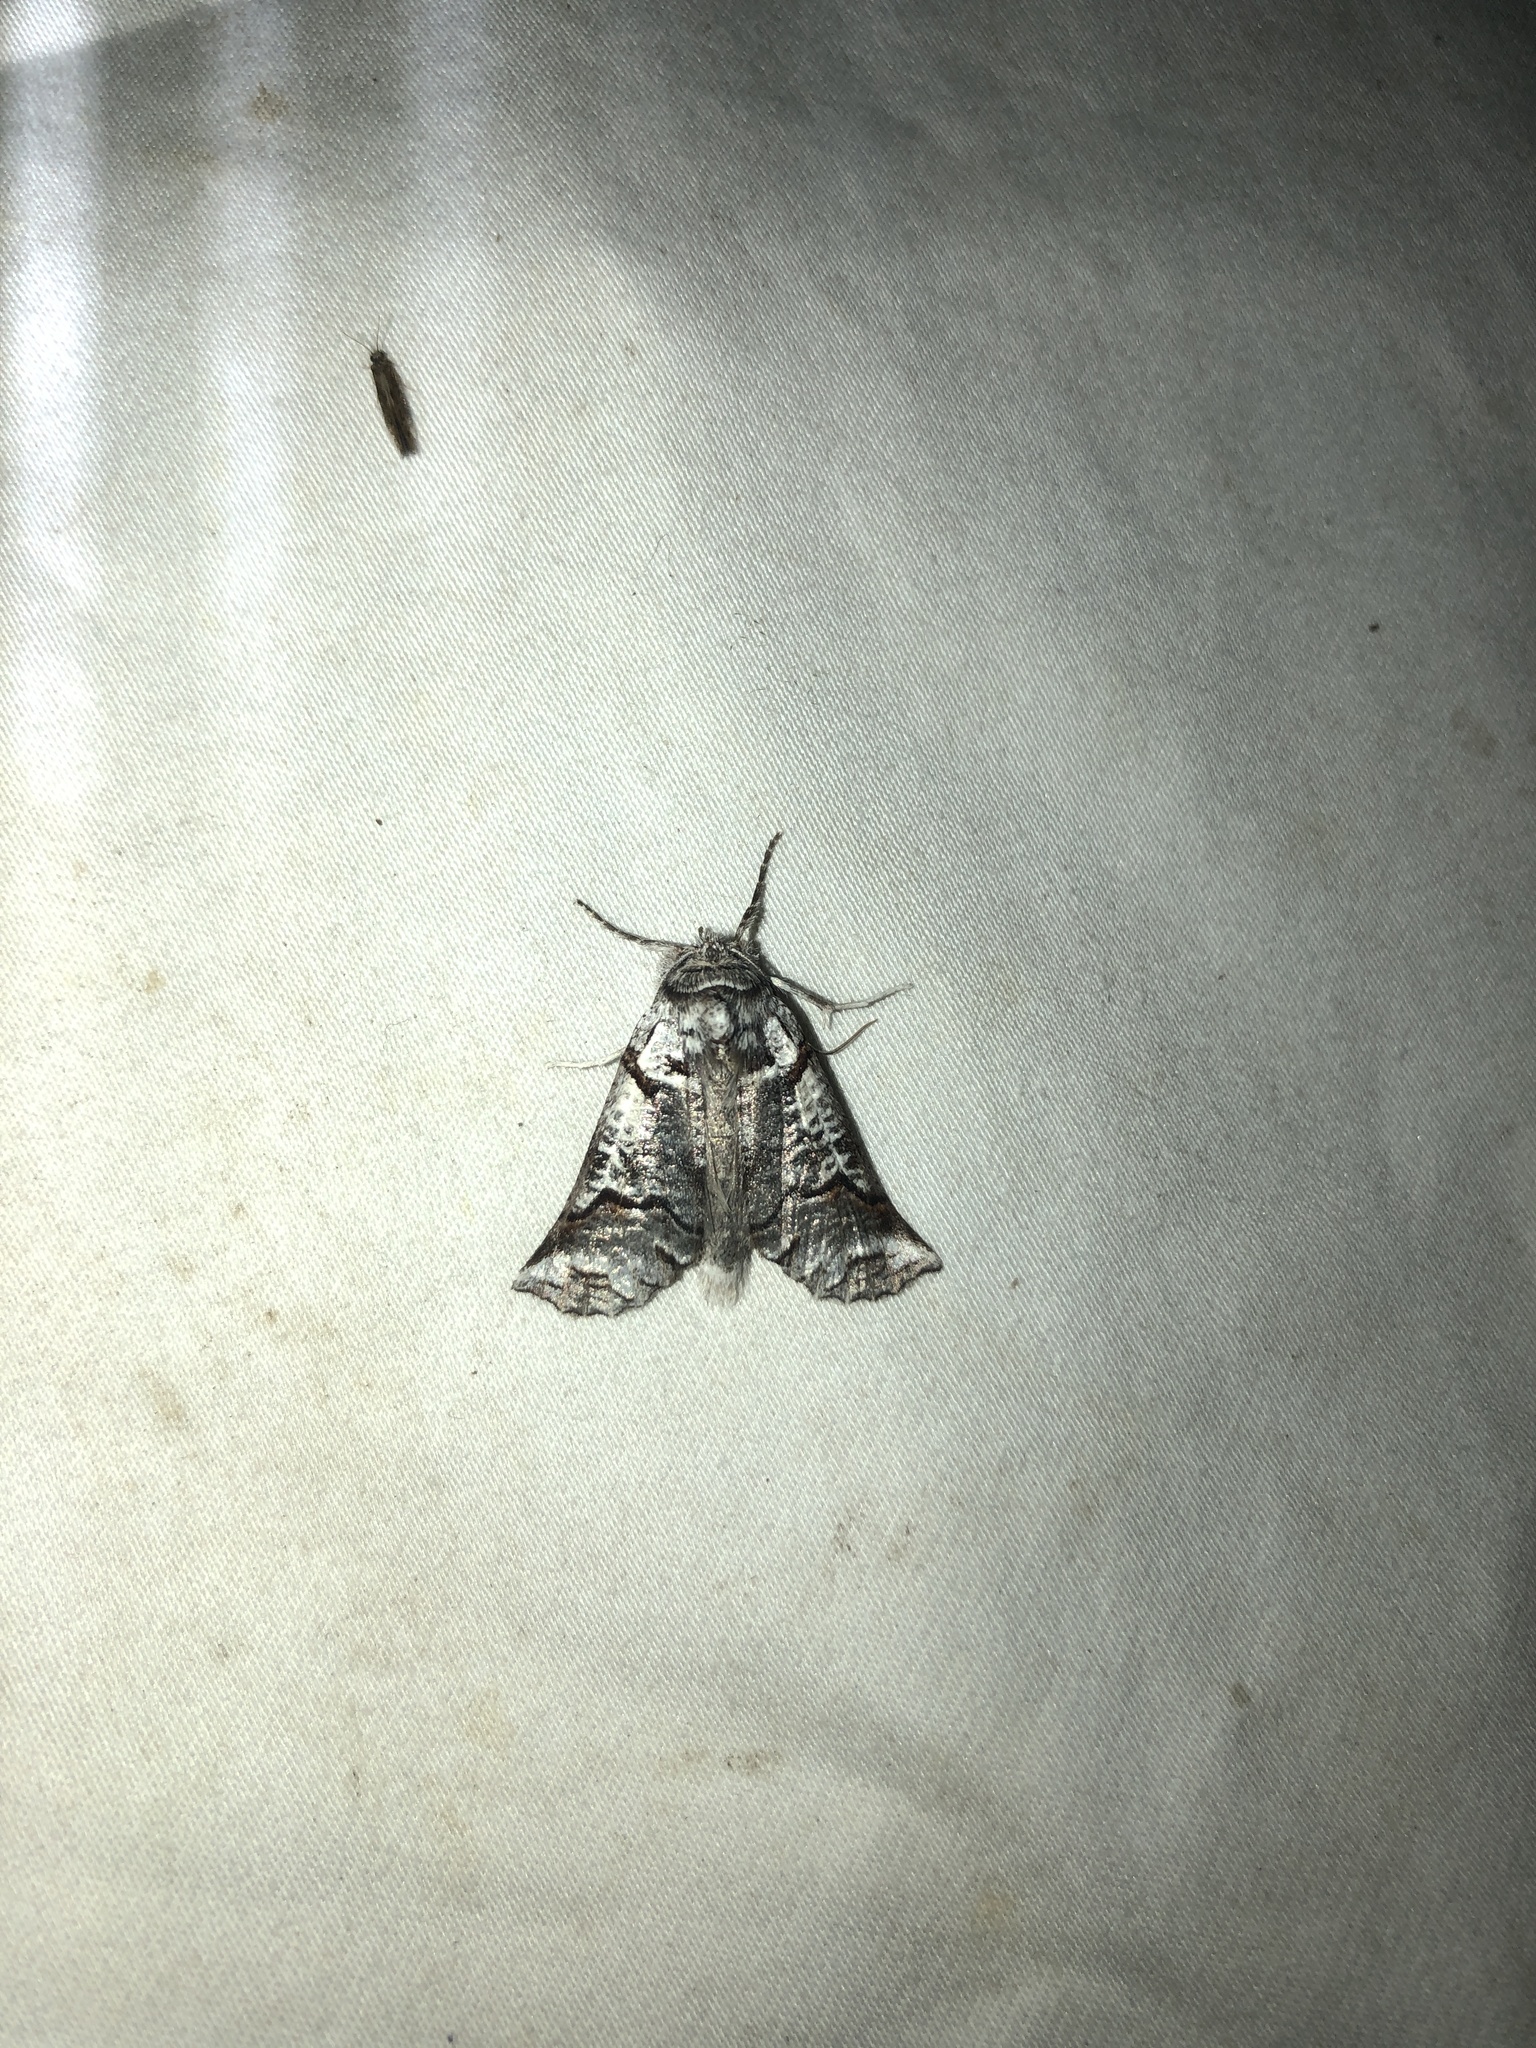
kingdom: Animalia
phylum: Arthropoda
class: Insecta
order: Lepidoptera
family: Geometridae
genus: Declana
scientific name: Declana
